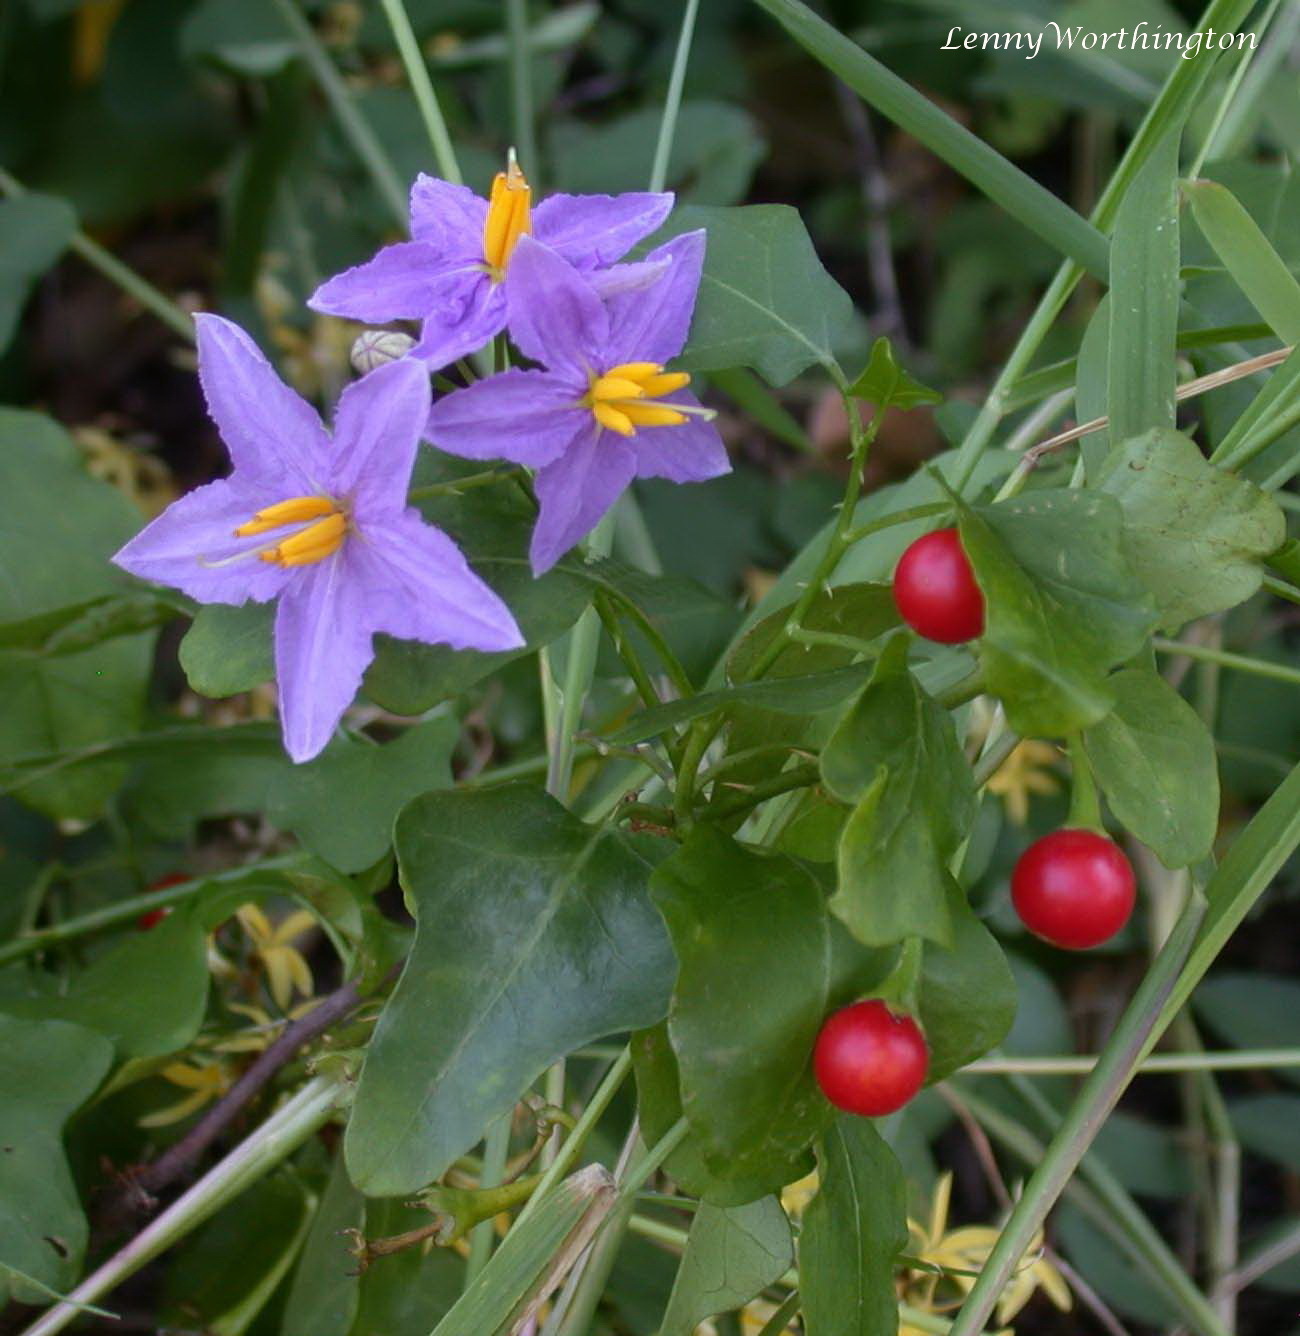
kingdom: Plantae
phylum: Tracheophyta
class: Magnoliopsida
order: Solanales
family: Solanaceae
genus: Solanum
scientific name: Solanum trilobatum
